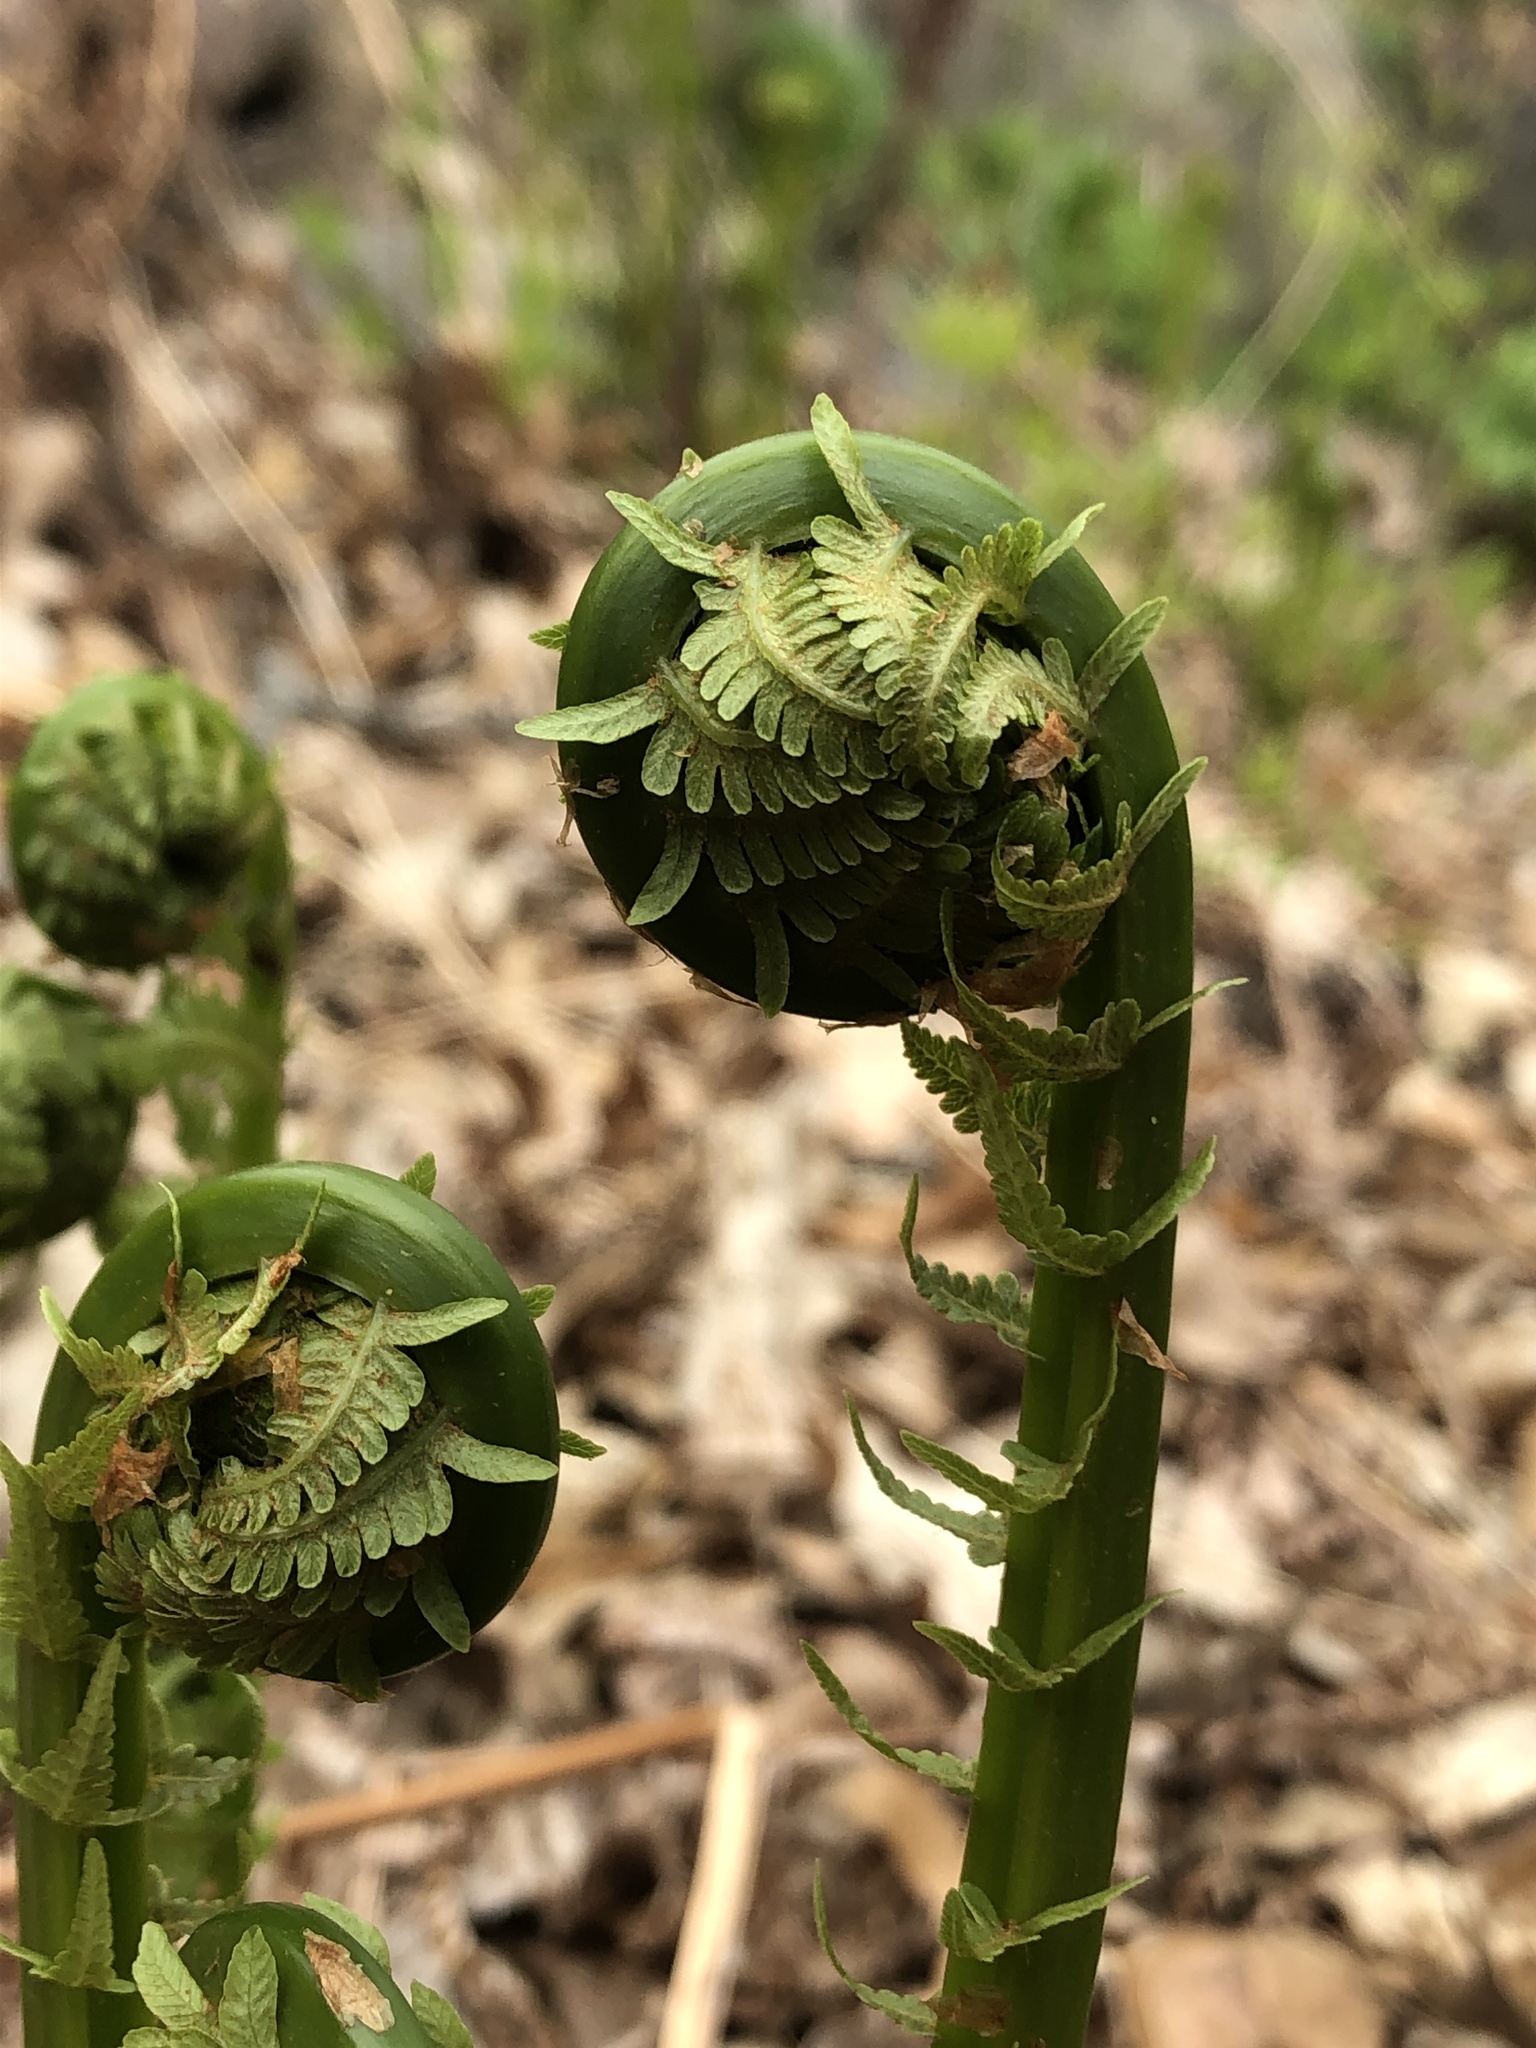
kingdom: Plantae
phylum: Tracheophyta
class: Polypodiopsida
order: Polypodiales
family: Onocleaceae
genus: Matteuccia
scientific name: Matteuccia struthiopteris
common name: Ostrich fern
